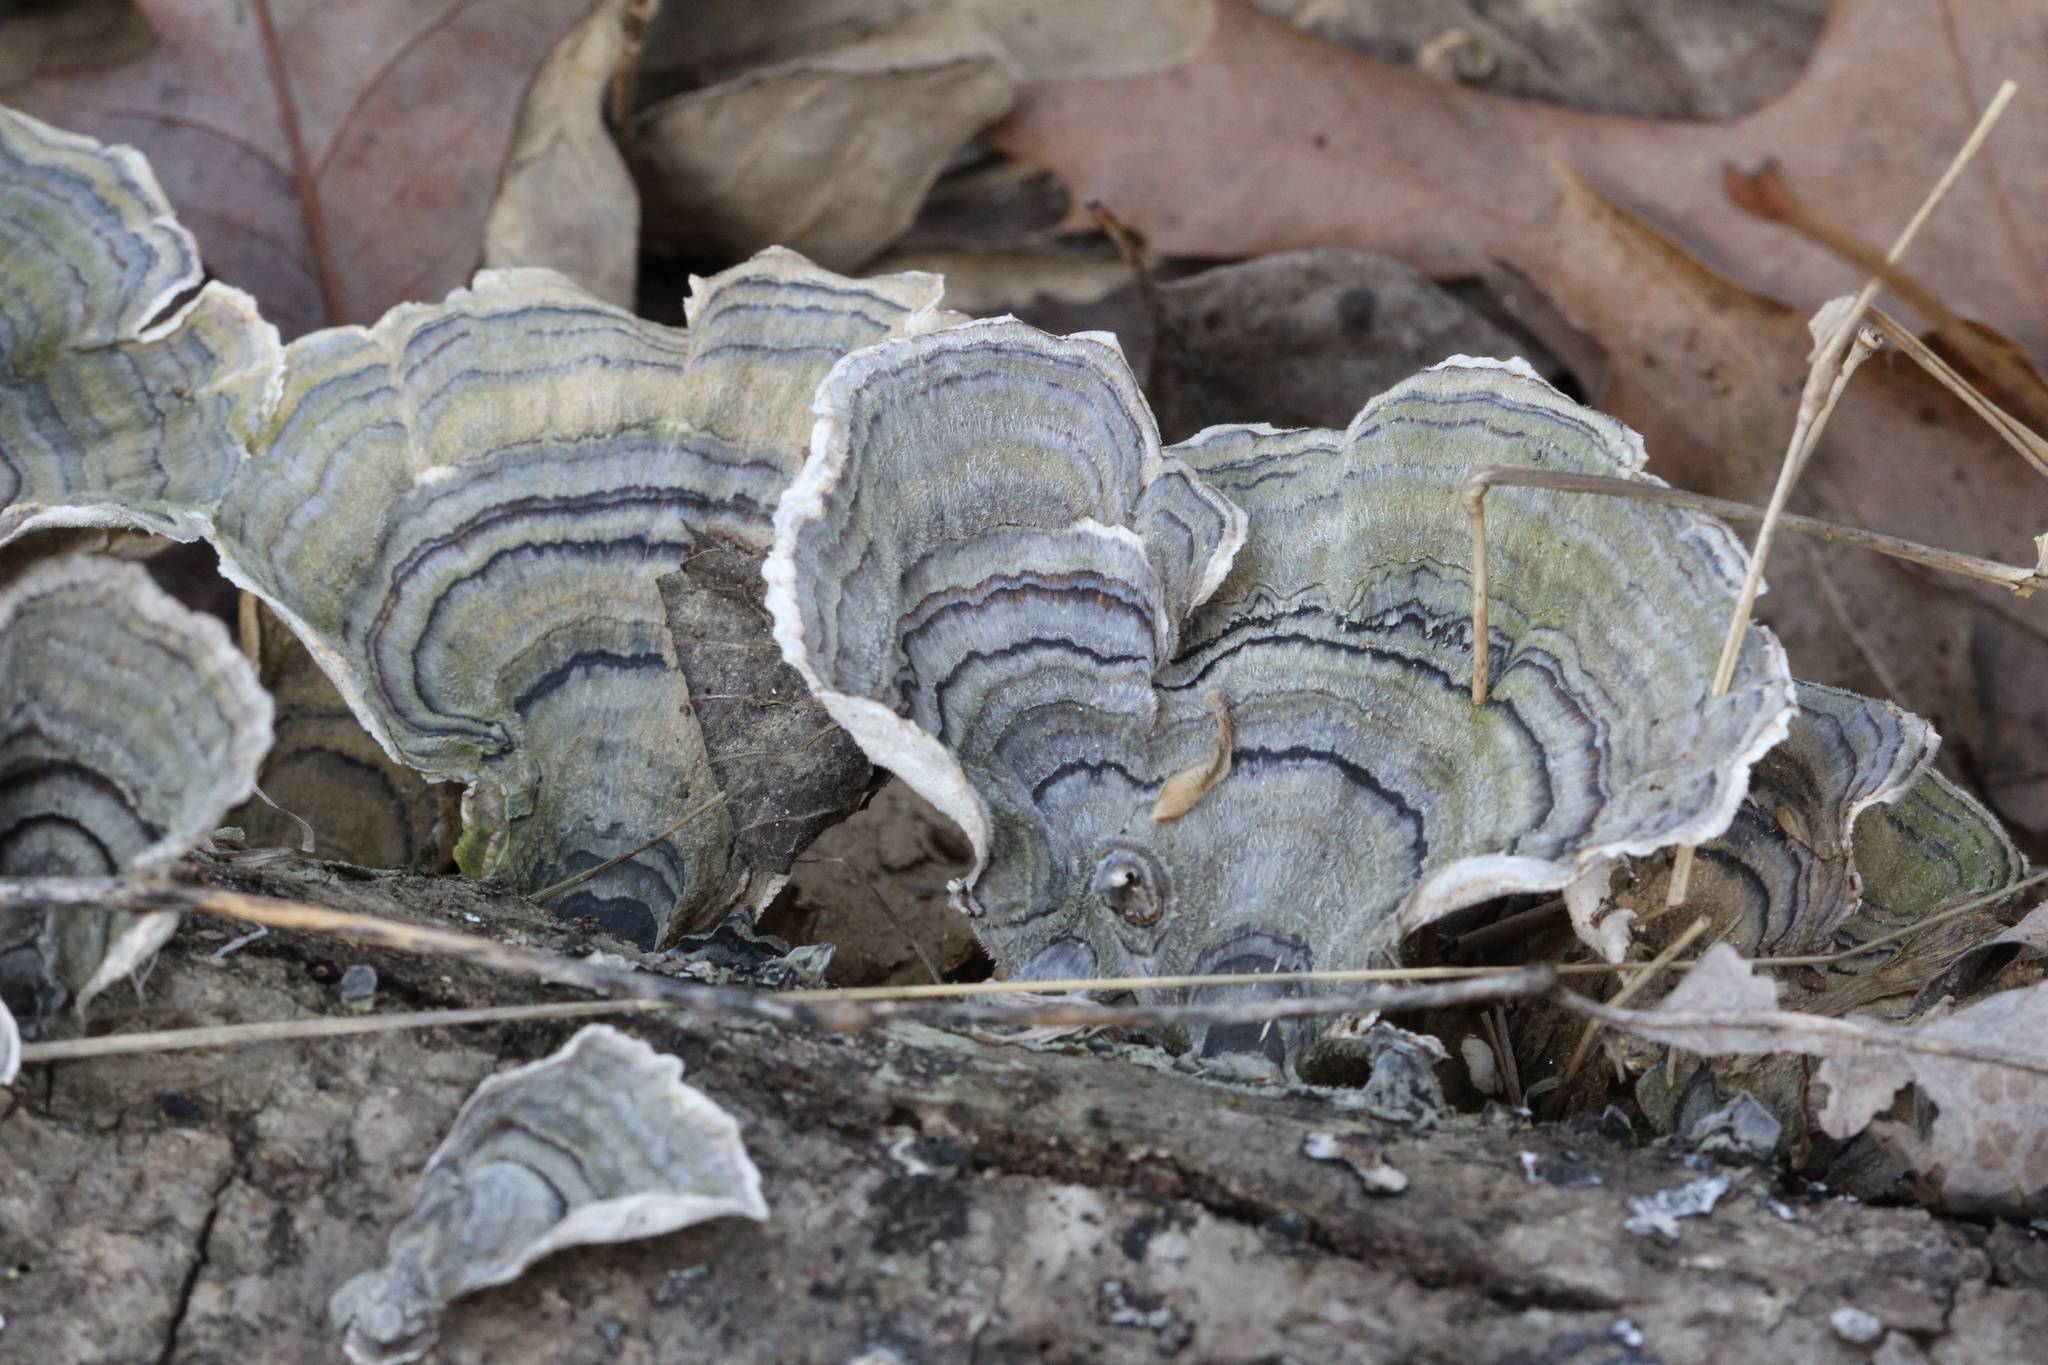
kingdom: Fungi
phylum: Basidiomycota
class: Agaricomycetes
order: Polyporales
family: Polyporaceae
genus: Trametes
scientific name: Trametes versicolor
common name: Turkeytail
